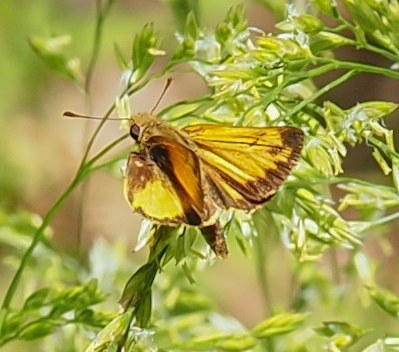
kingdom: Animalia
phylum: Arthropoda
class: Insecta
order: Lepidoptera
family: Hesperiidae
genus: Lon
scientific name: Lon zabulon
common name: Zabulon skipper
